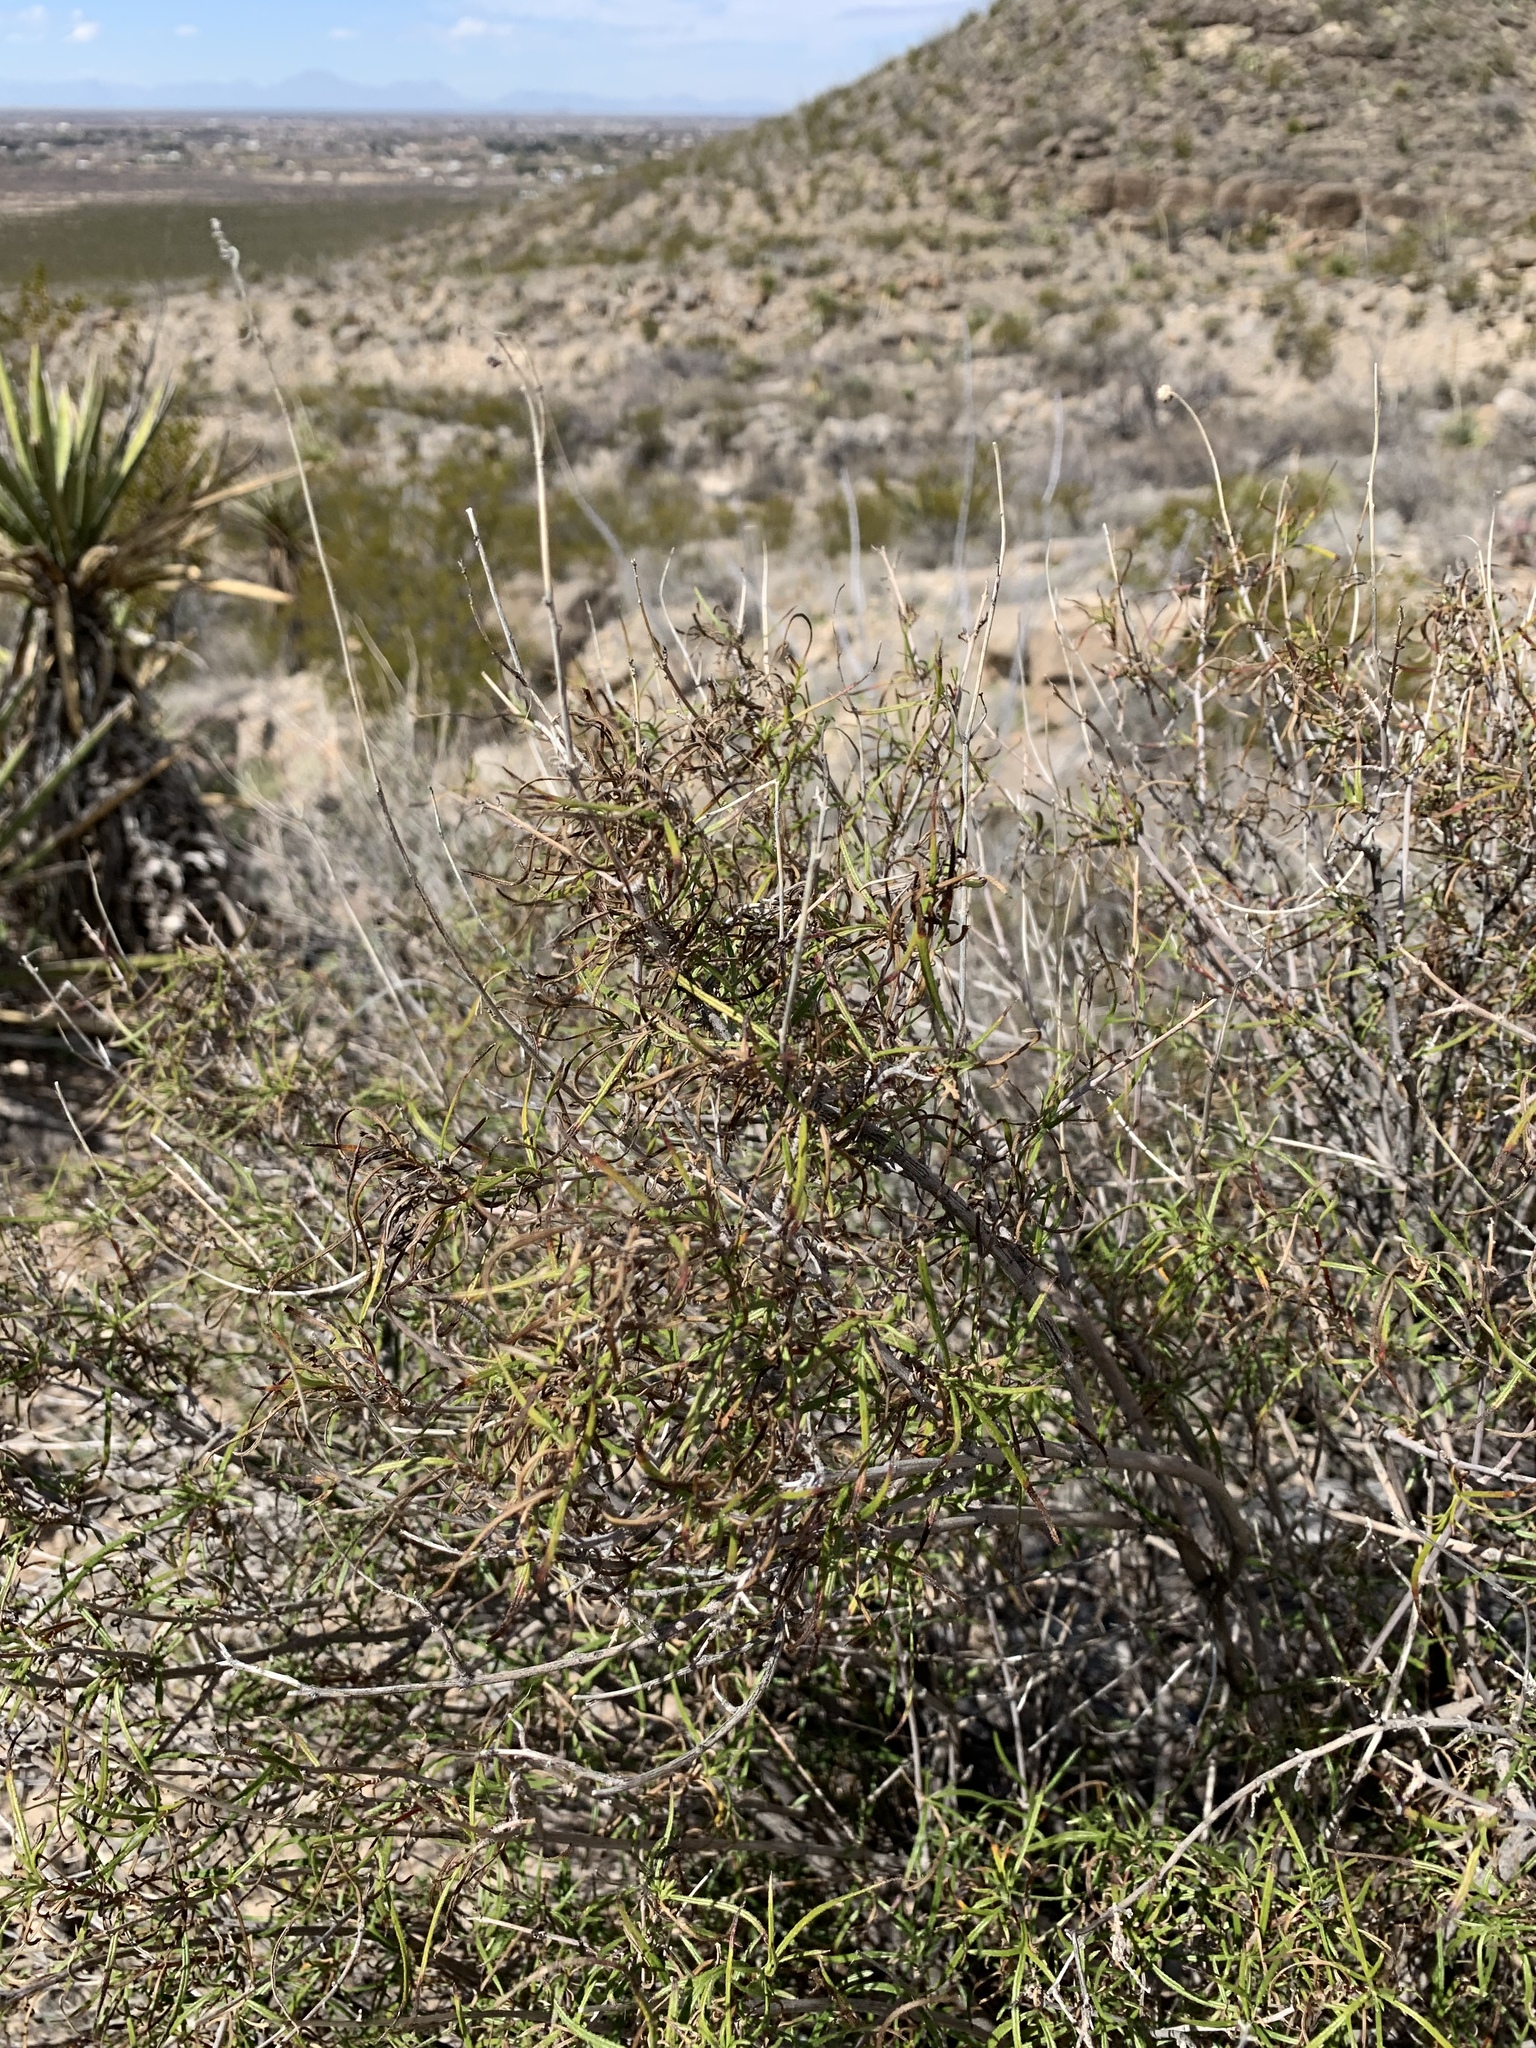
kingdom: Plantae
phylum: Tracheophyta
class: Magnoliopsida
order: Asterales
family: Asteraceae
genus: Sidneya
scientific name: Sidneya tenuifolia
